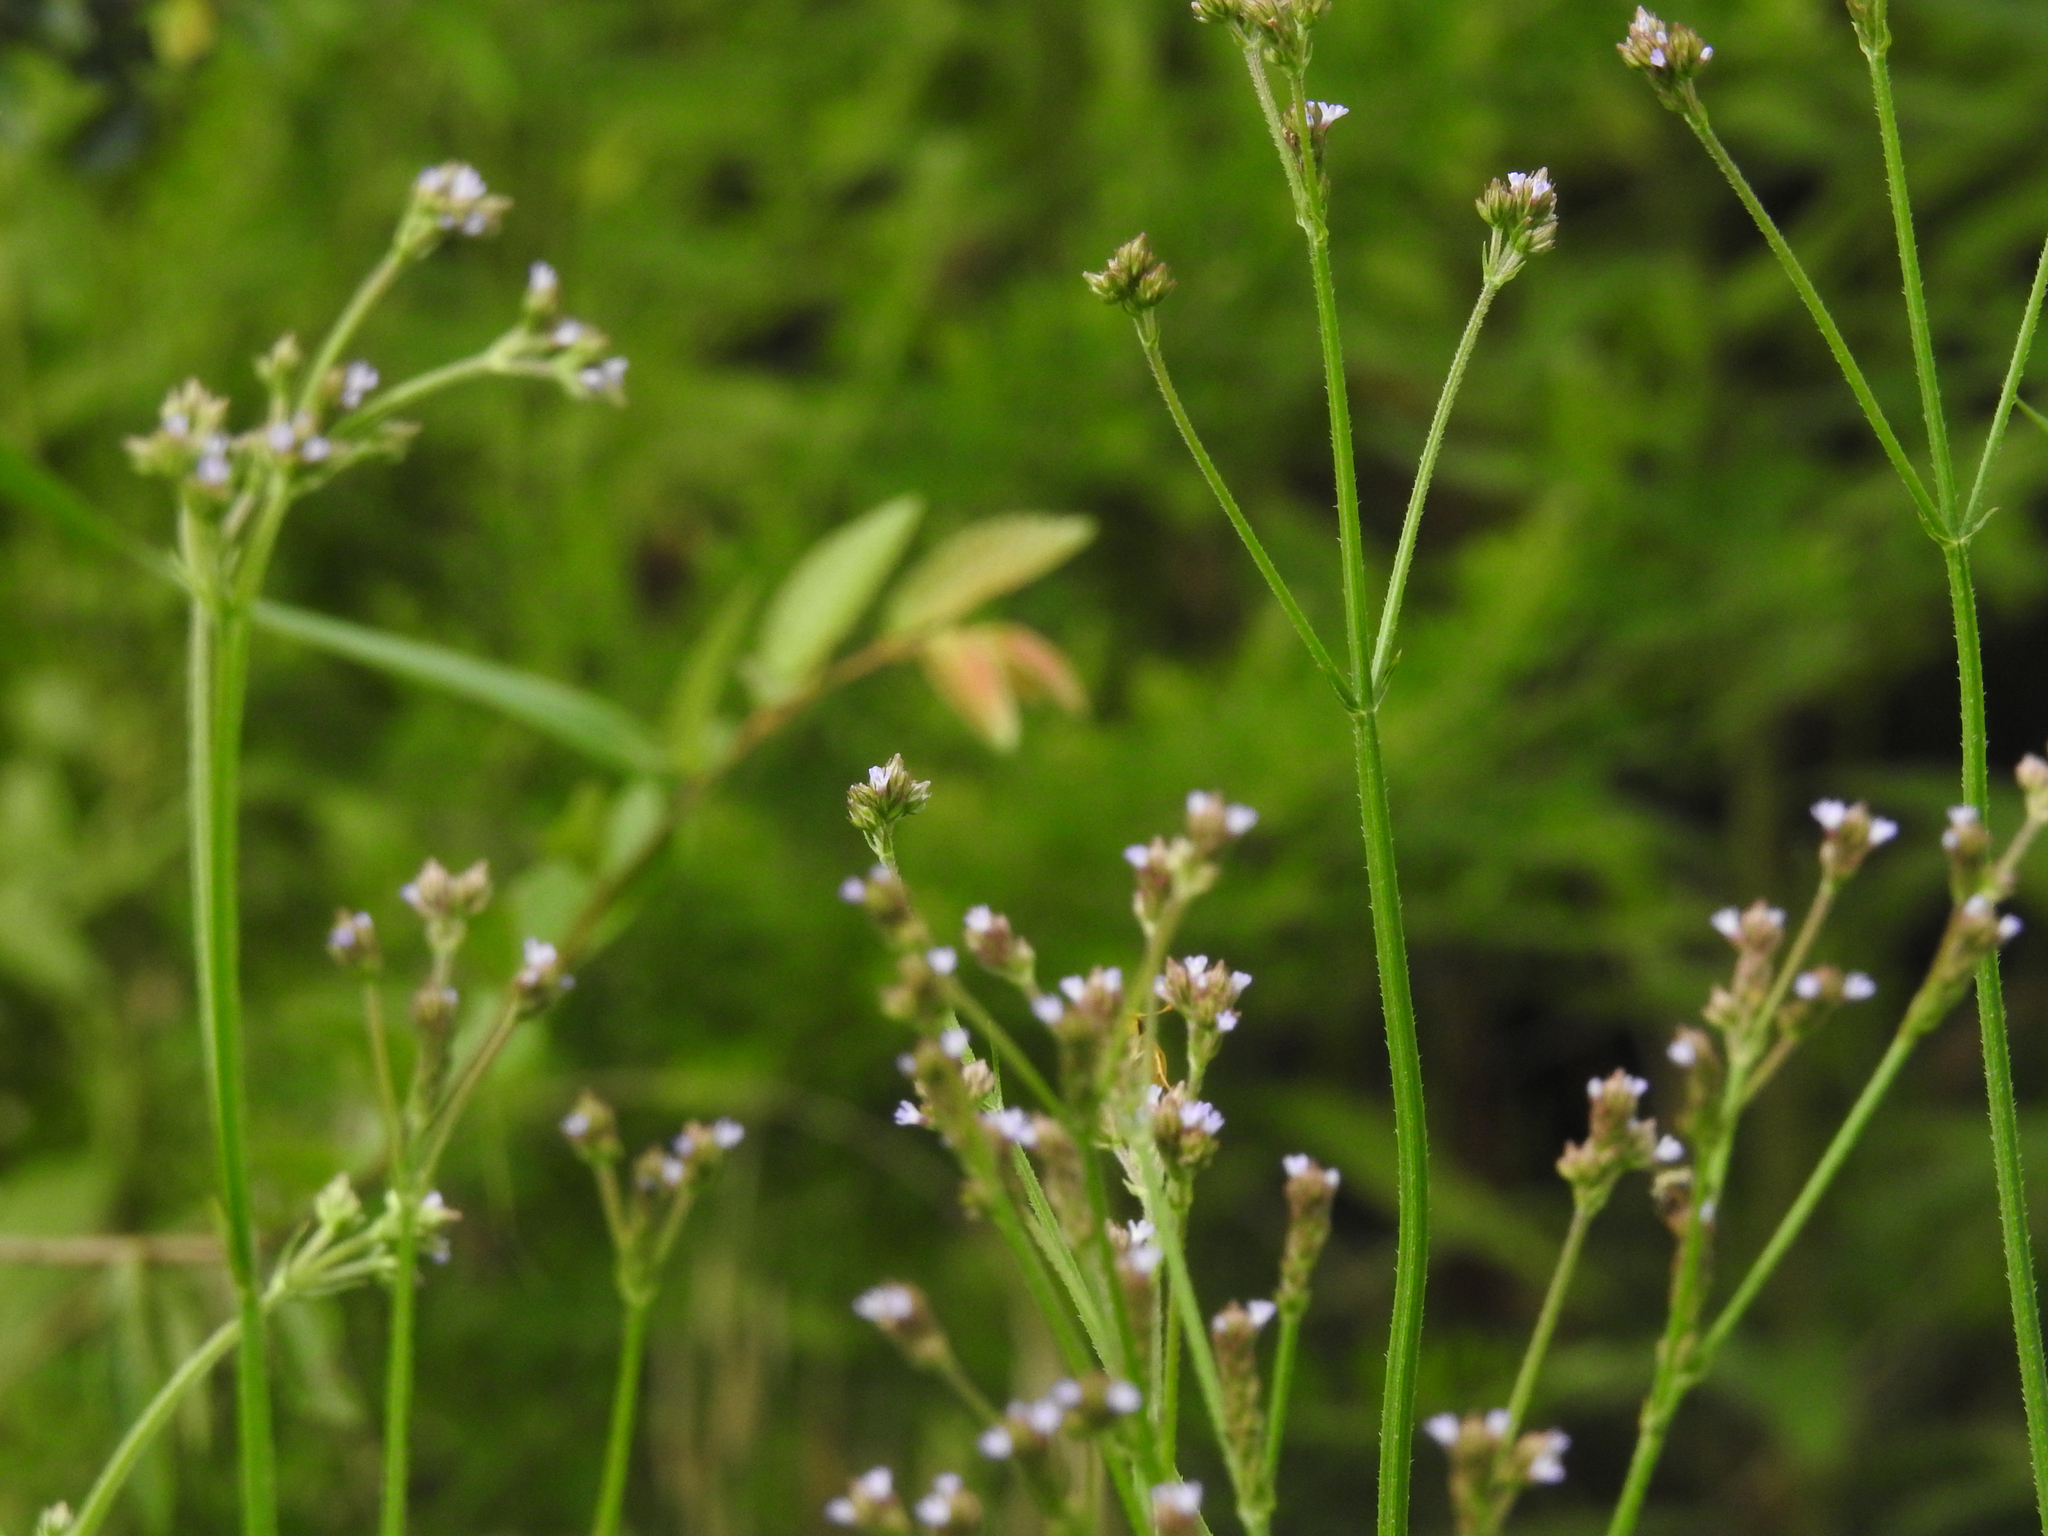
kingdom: Plantae
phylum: Tracheophyta
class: Magnoliopsida
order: Lamiales
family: Verbenaceae
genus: Verbena
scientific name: Verbena brasiliensis
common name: Brazilian vervain
